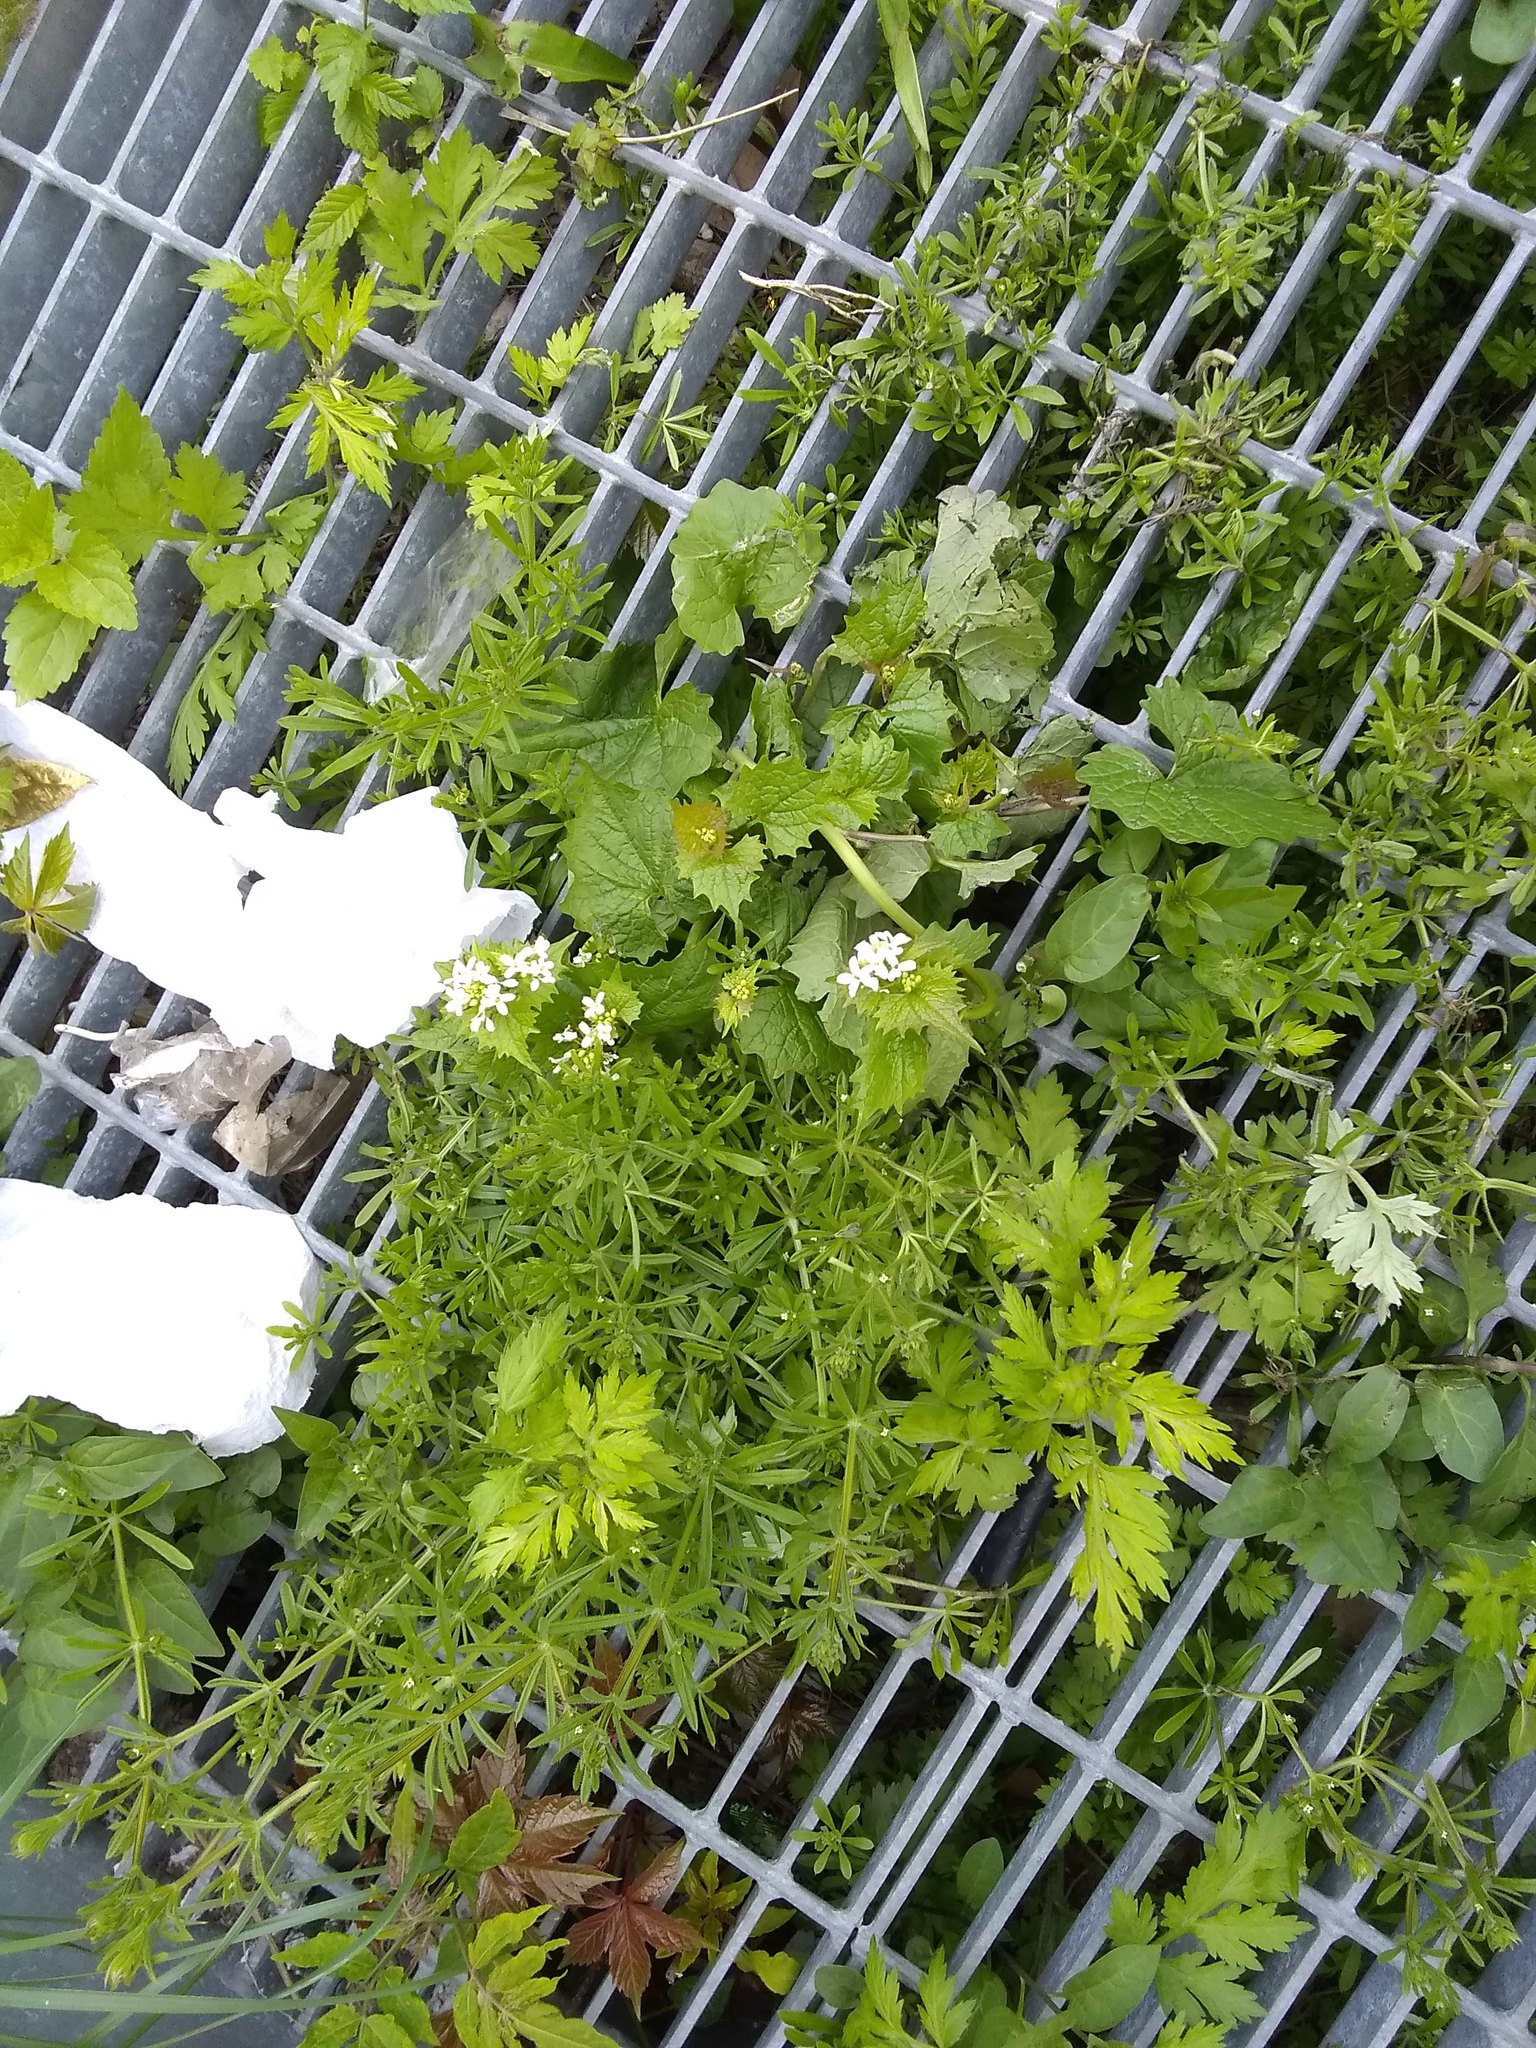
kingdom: Plantae
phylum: Tracheophyta
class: Magnoliopsida
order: Brassicales
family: Brassicaceae
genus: Alliaria
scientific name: Alliaria petiolata
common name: Garlic mustard
